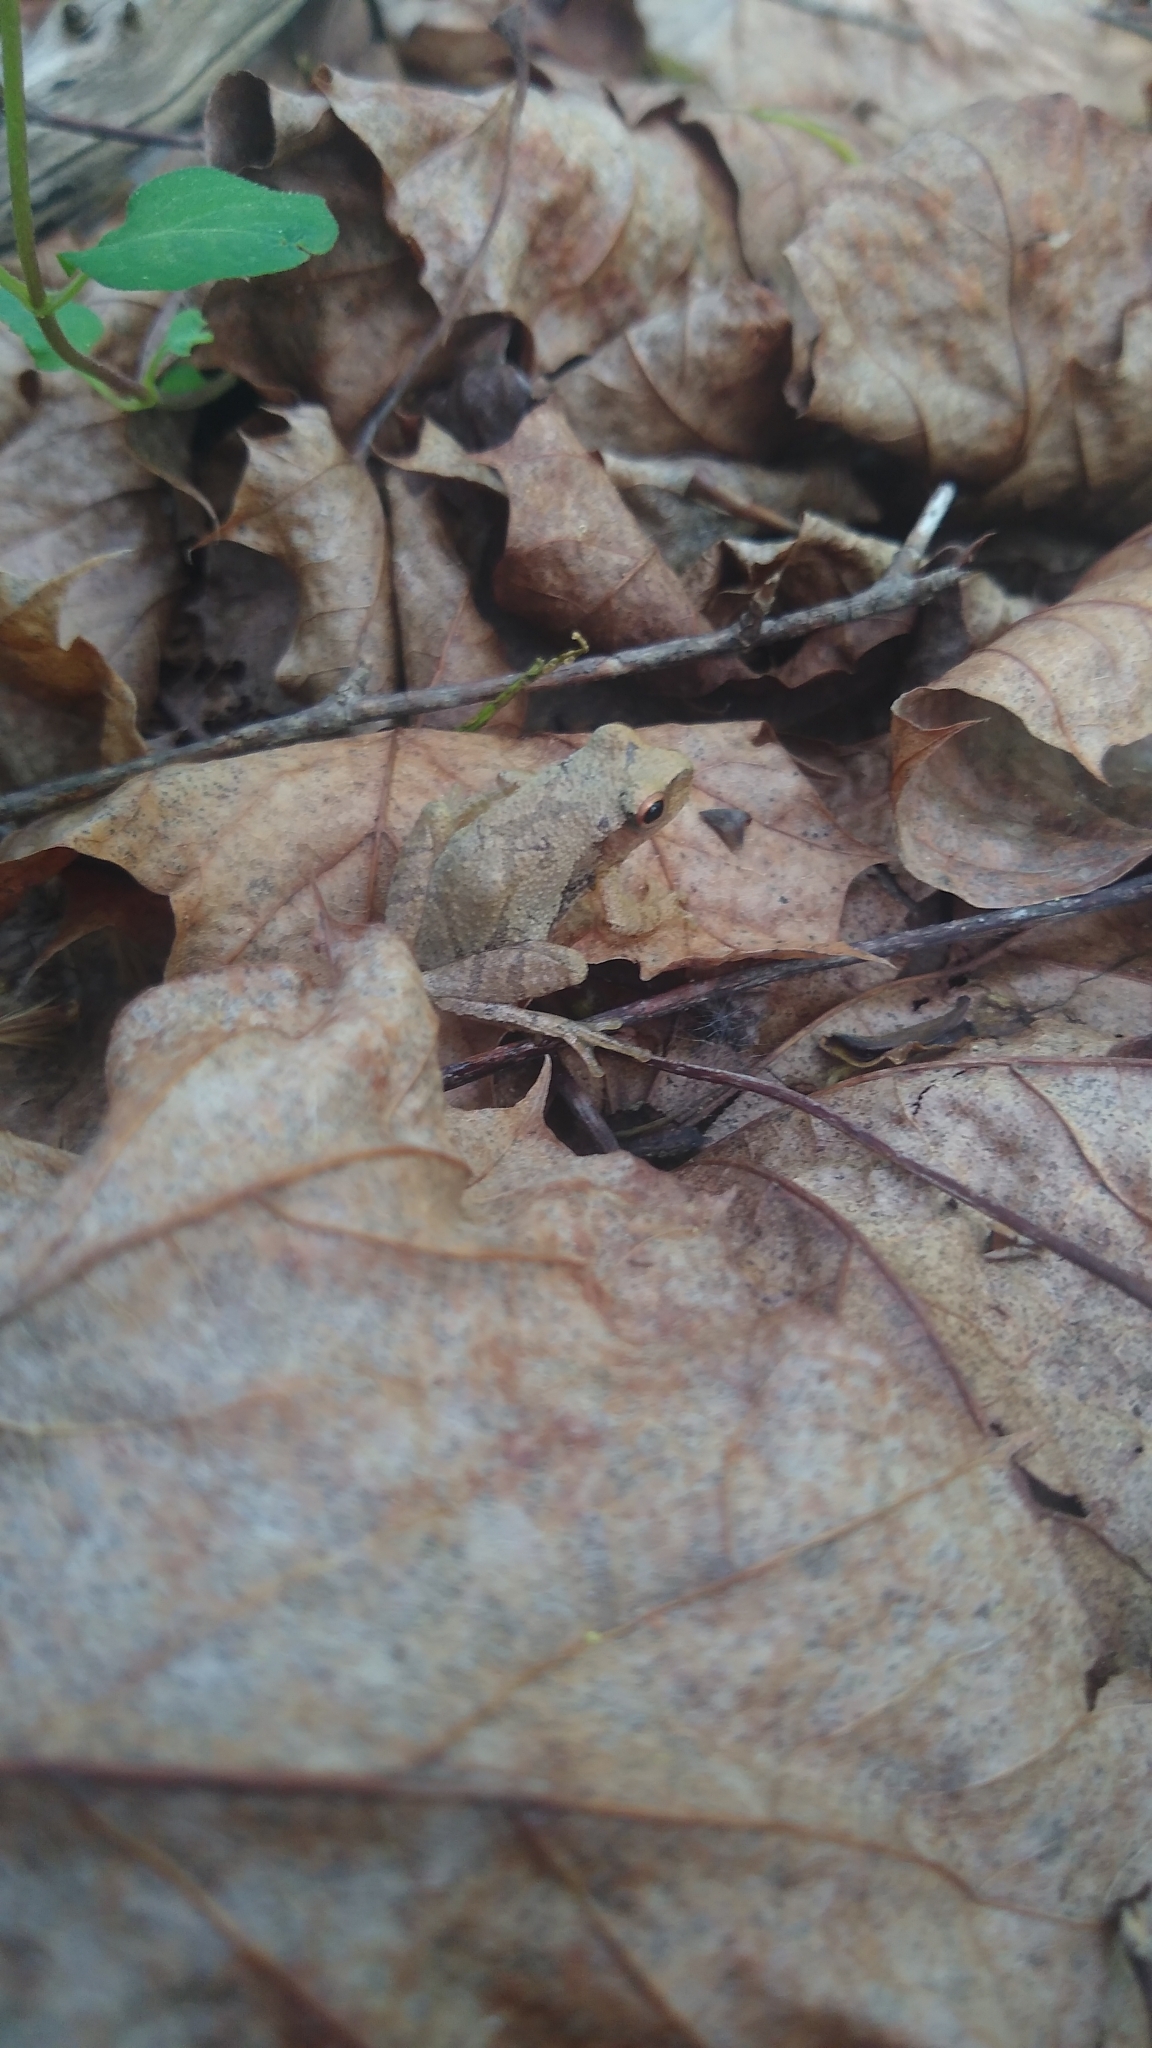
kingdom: Animalia
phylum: Chordata
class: Amphibia
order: Anura
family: Hylidae
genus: Pseudacris
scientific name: Pseudacris crucifer
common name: Spring peeper
